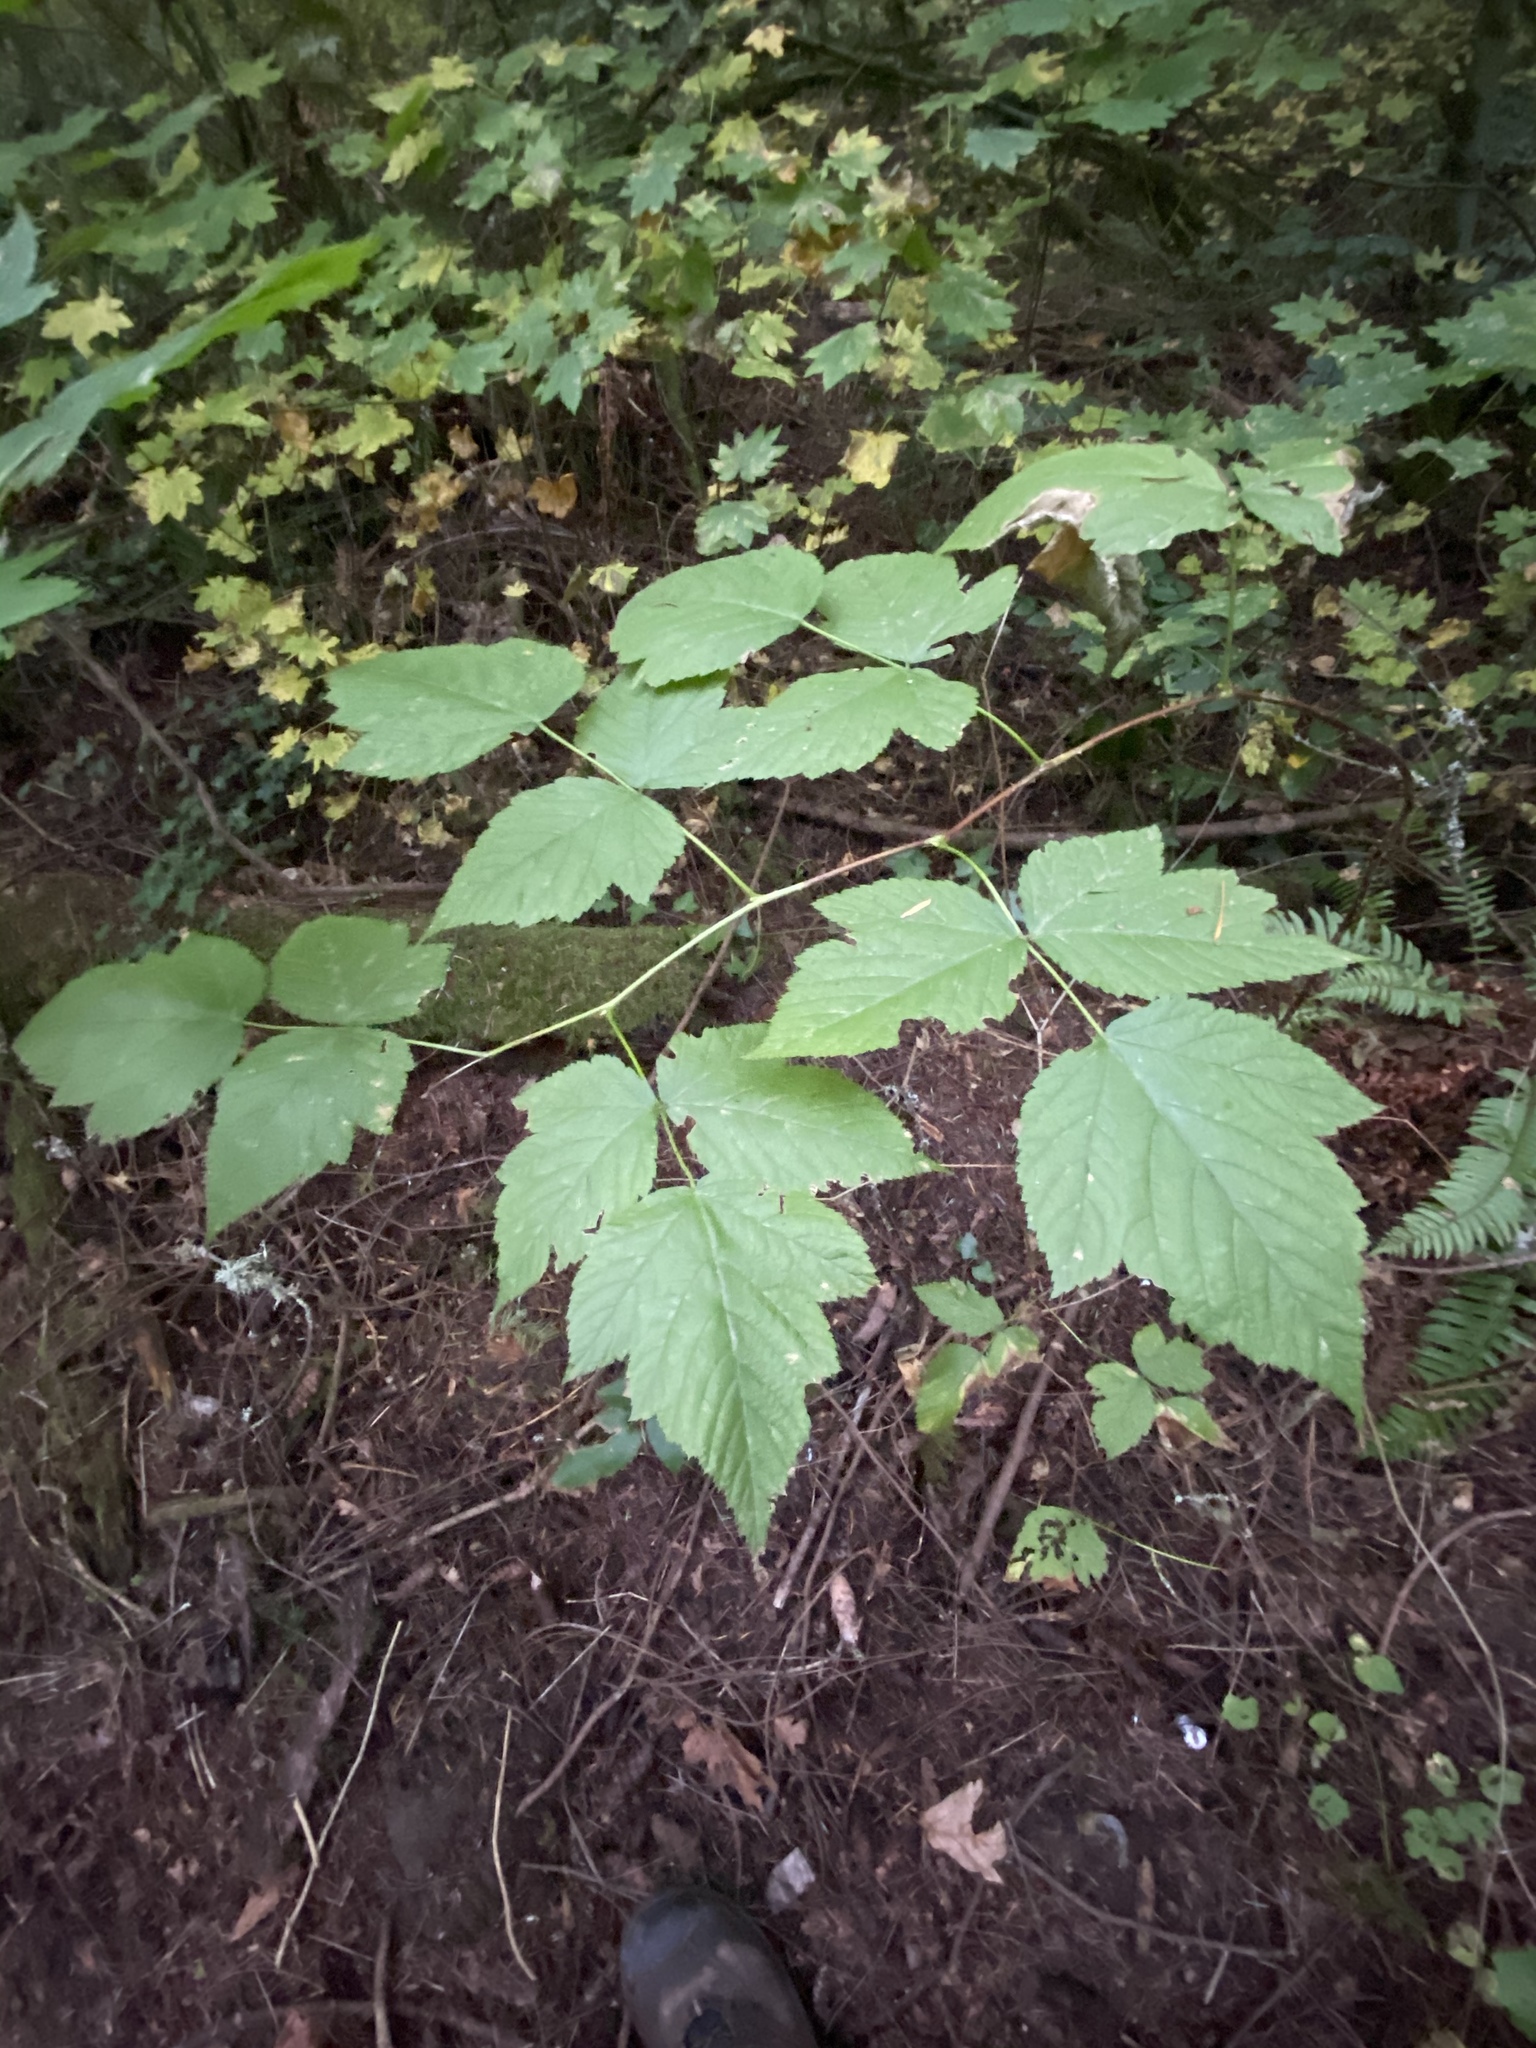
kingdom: Plantae
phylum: Tracheophyta
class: Magnoliopsida
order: Rosales
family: Rosaceae
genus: Rubus
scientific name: Rubus spectabilis
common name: Salmonberry
